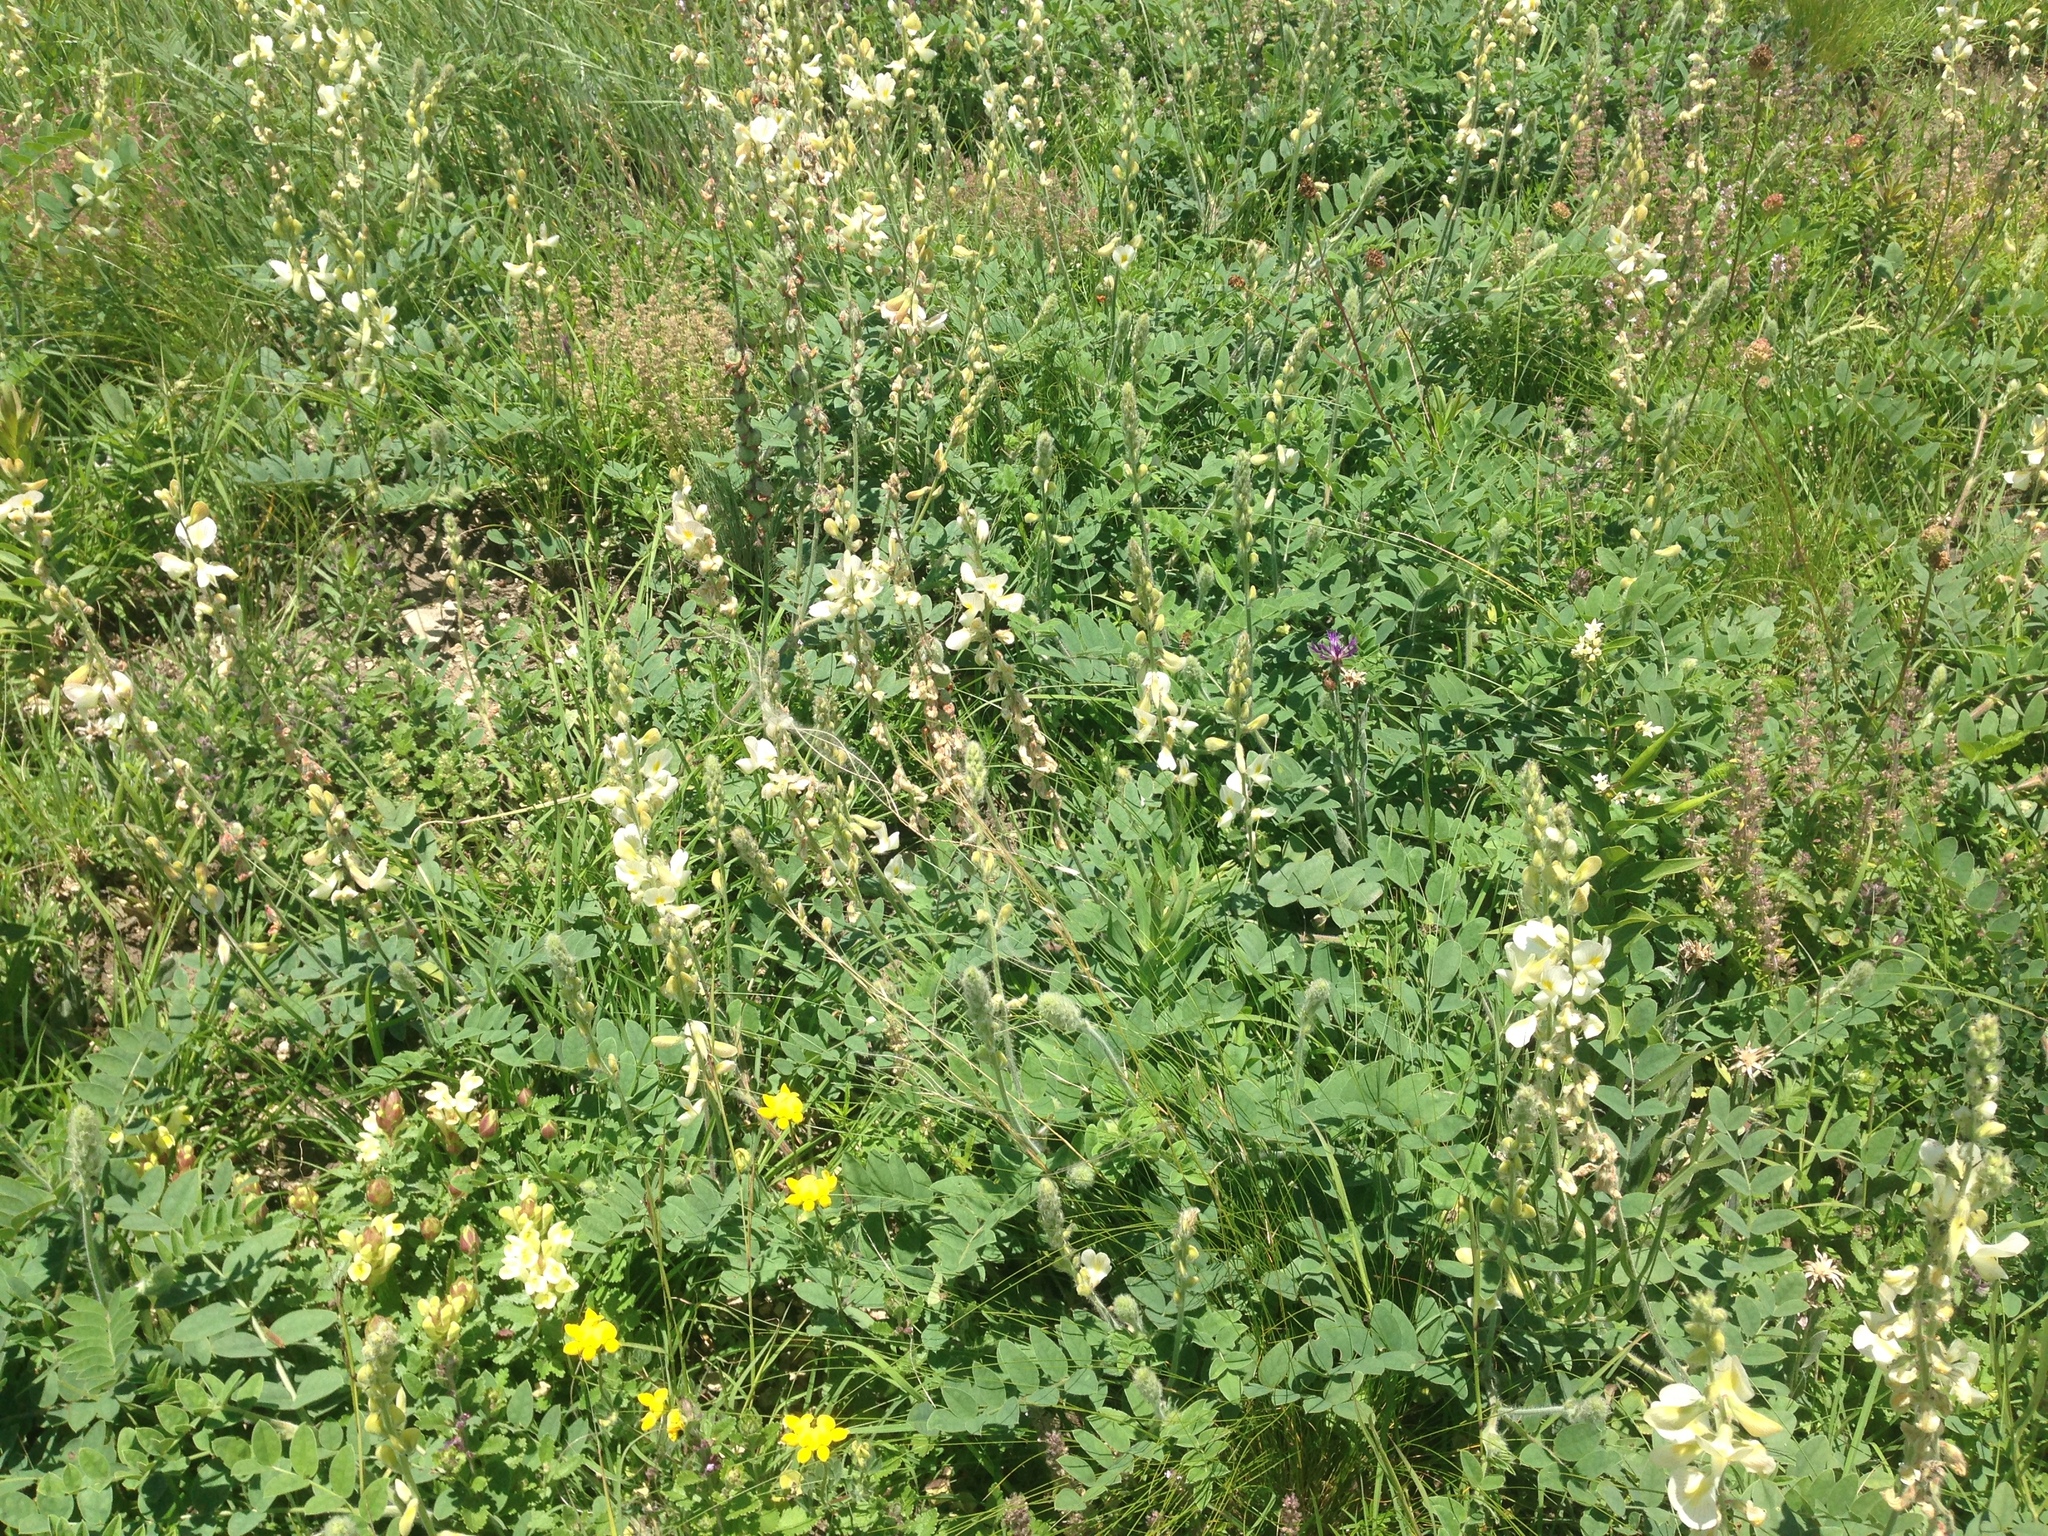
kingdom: Plantae
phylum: Tracheophyta
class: Magnoliopsida
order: Fabales
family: Fabaceae
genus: Onobrychis
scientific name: Onobrychis vassilczenkoi
